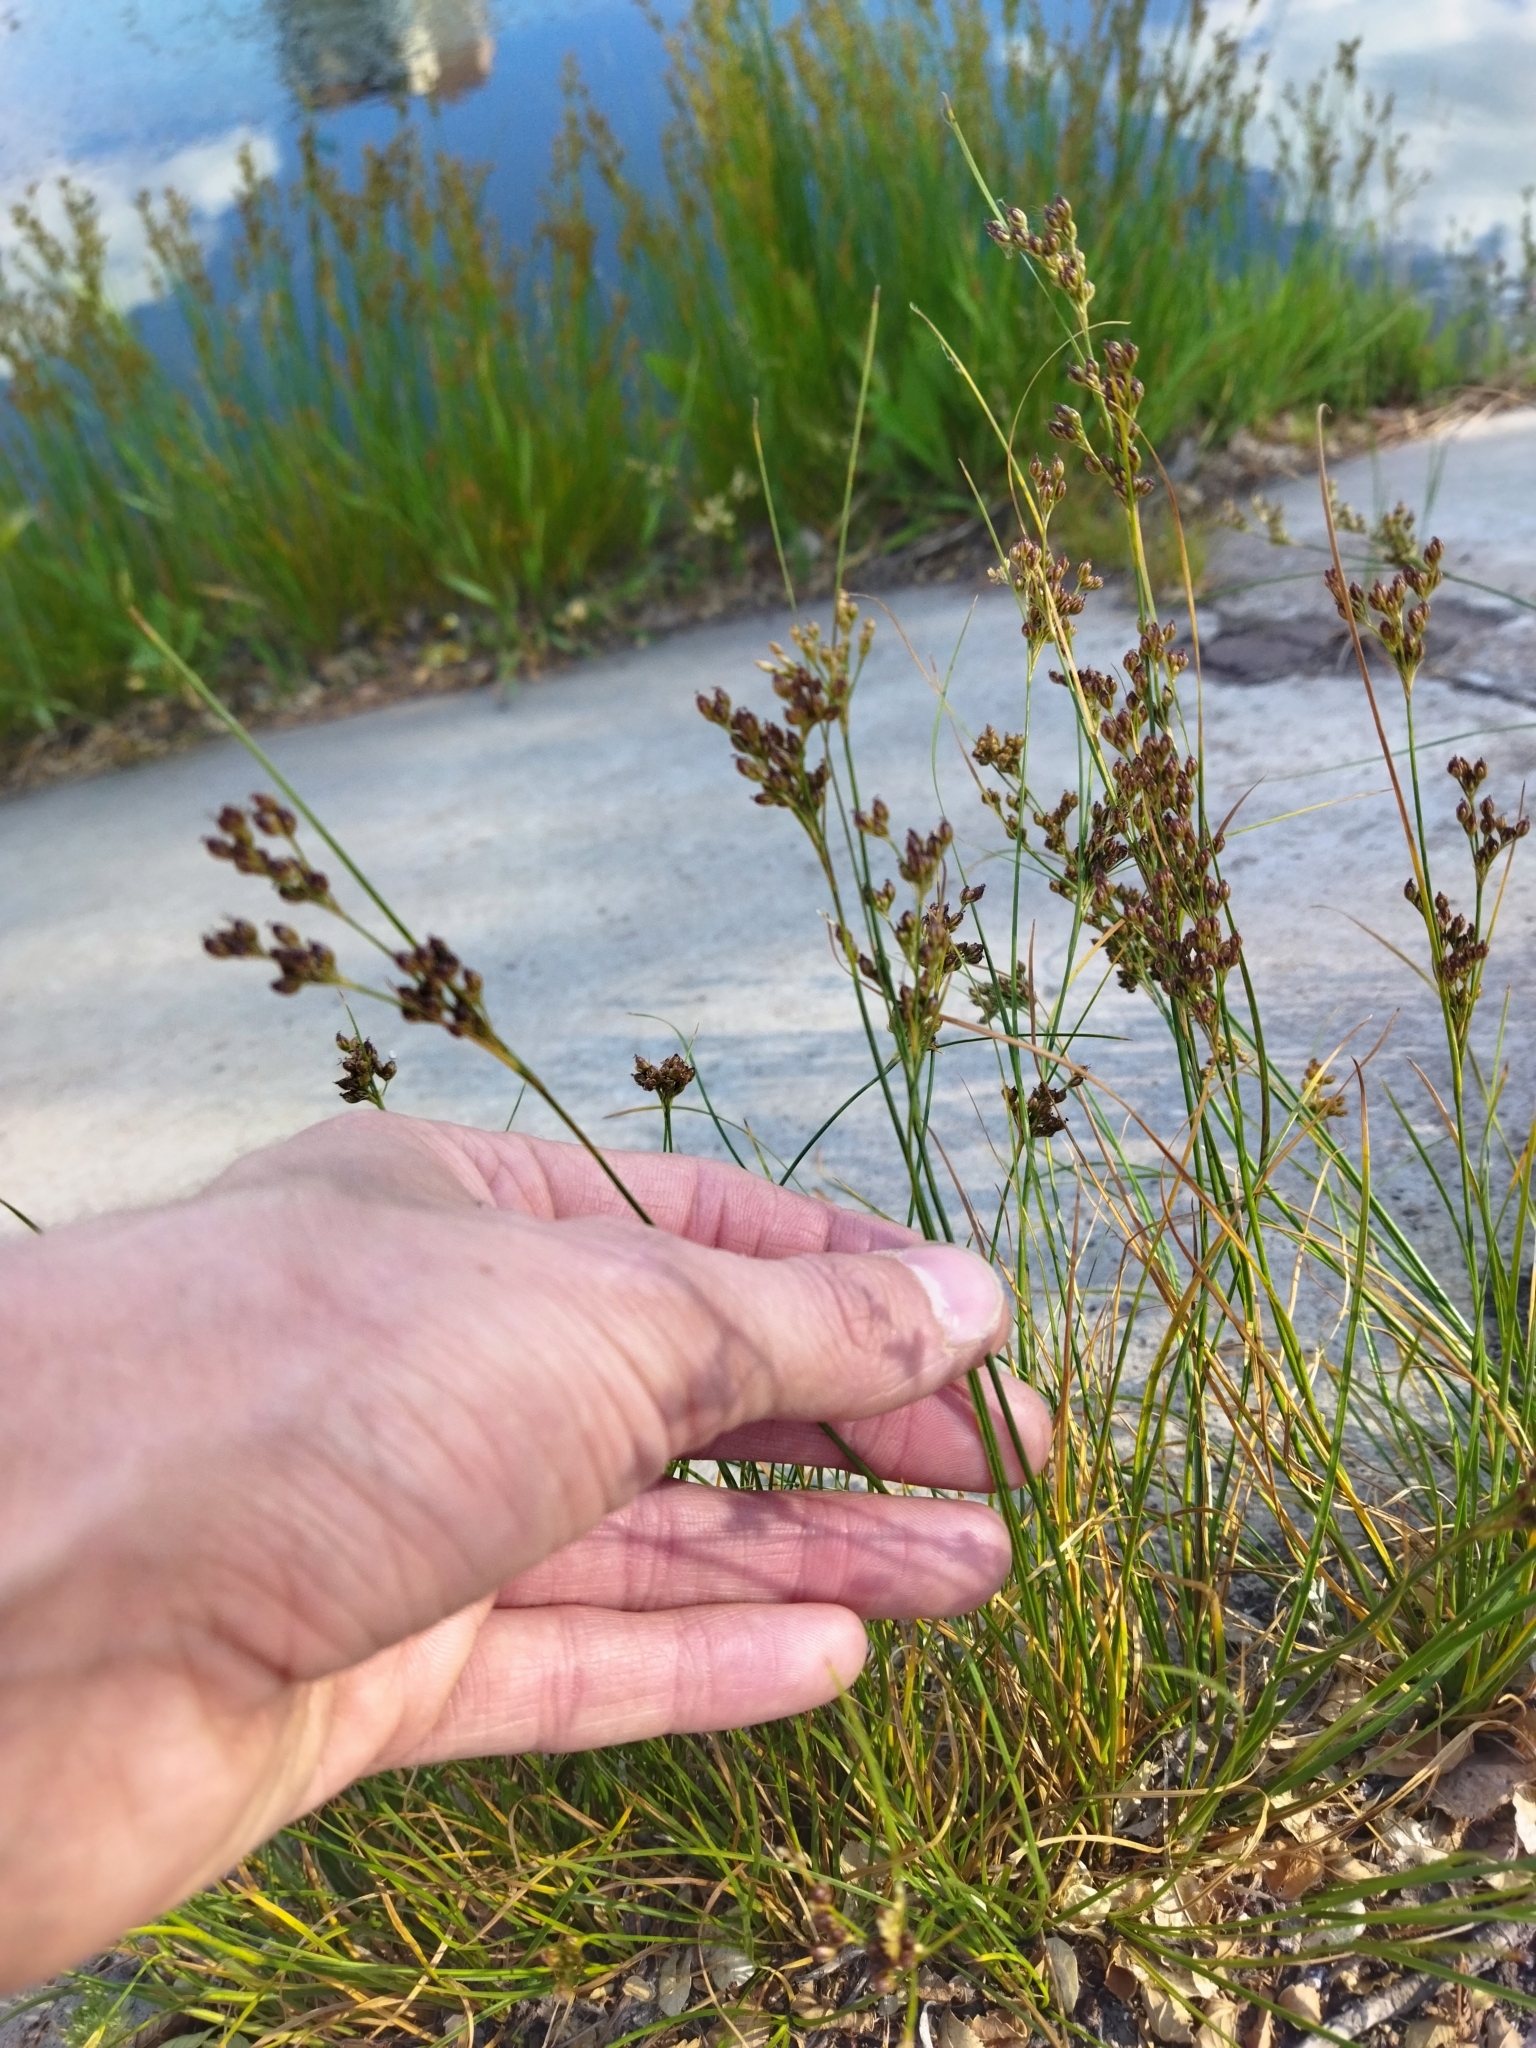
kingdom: Plantae
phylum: Tracheophyta
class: Liliopsida
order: Poales
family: Juncaceae
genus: Juncus
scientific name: Juncus compressus
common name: Round-fruited rush
